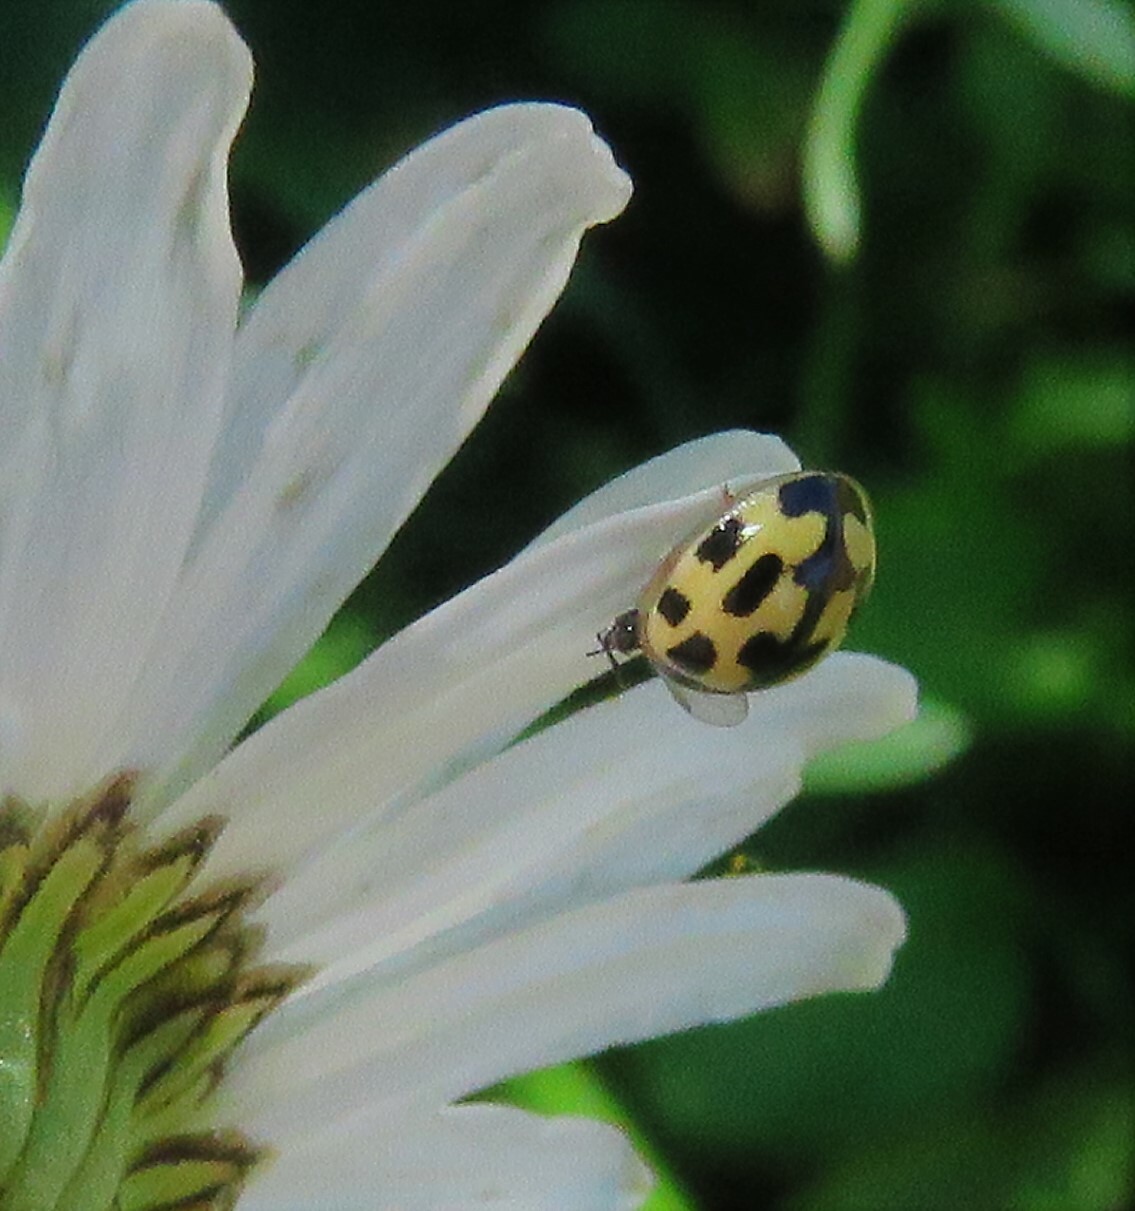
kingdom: Animalia
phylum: Arthropoda
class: Insecta
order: Coleoptera
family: Coccinellidae
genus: Propylaea
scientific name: Propylaea quatuordecimpunctata
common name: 14-spotted ladybird beetle
